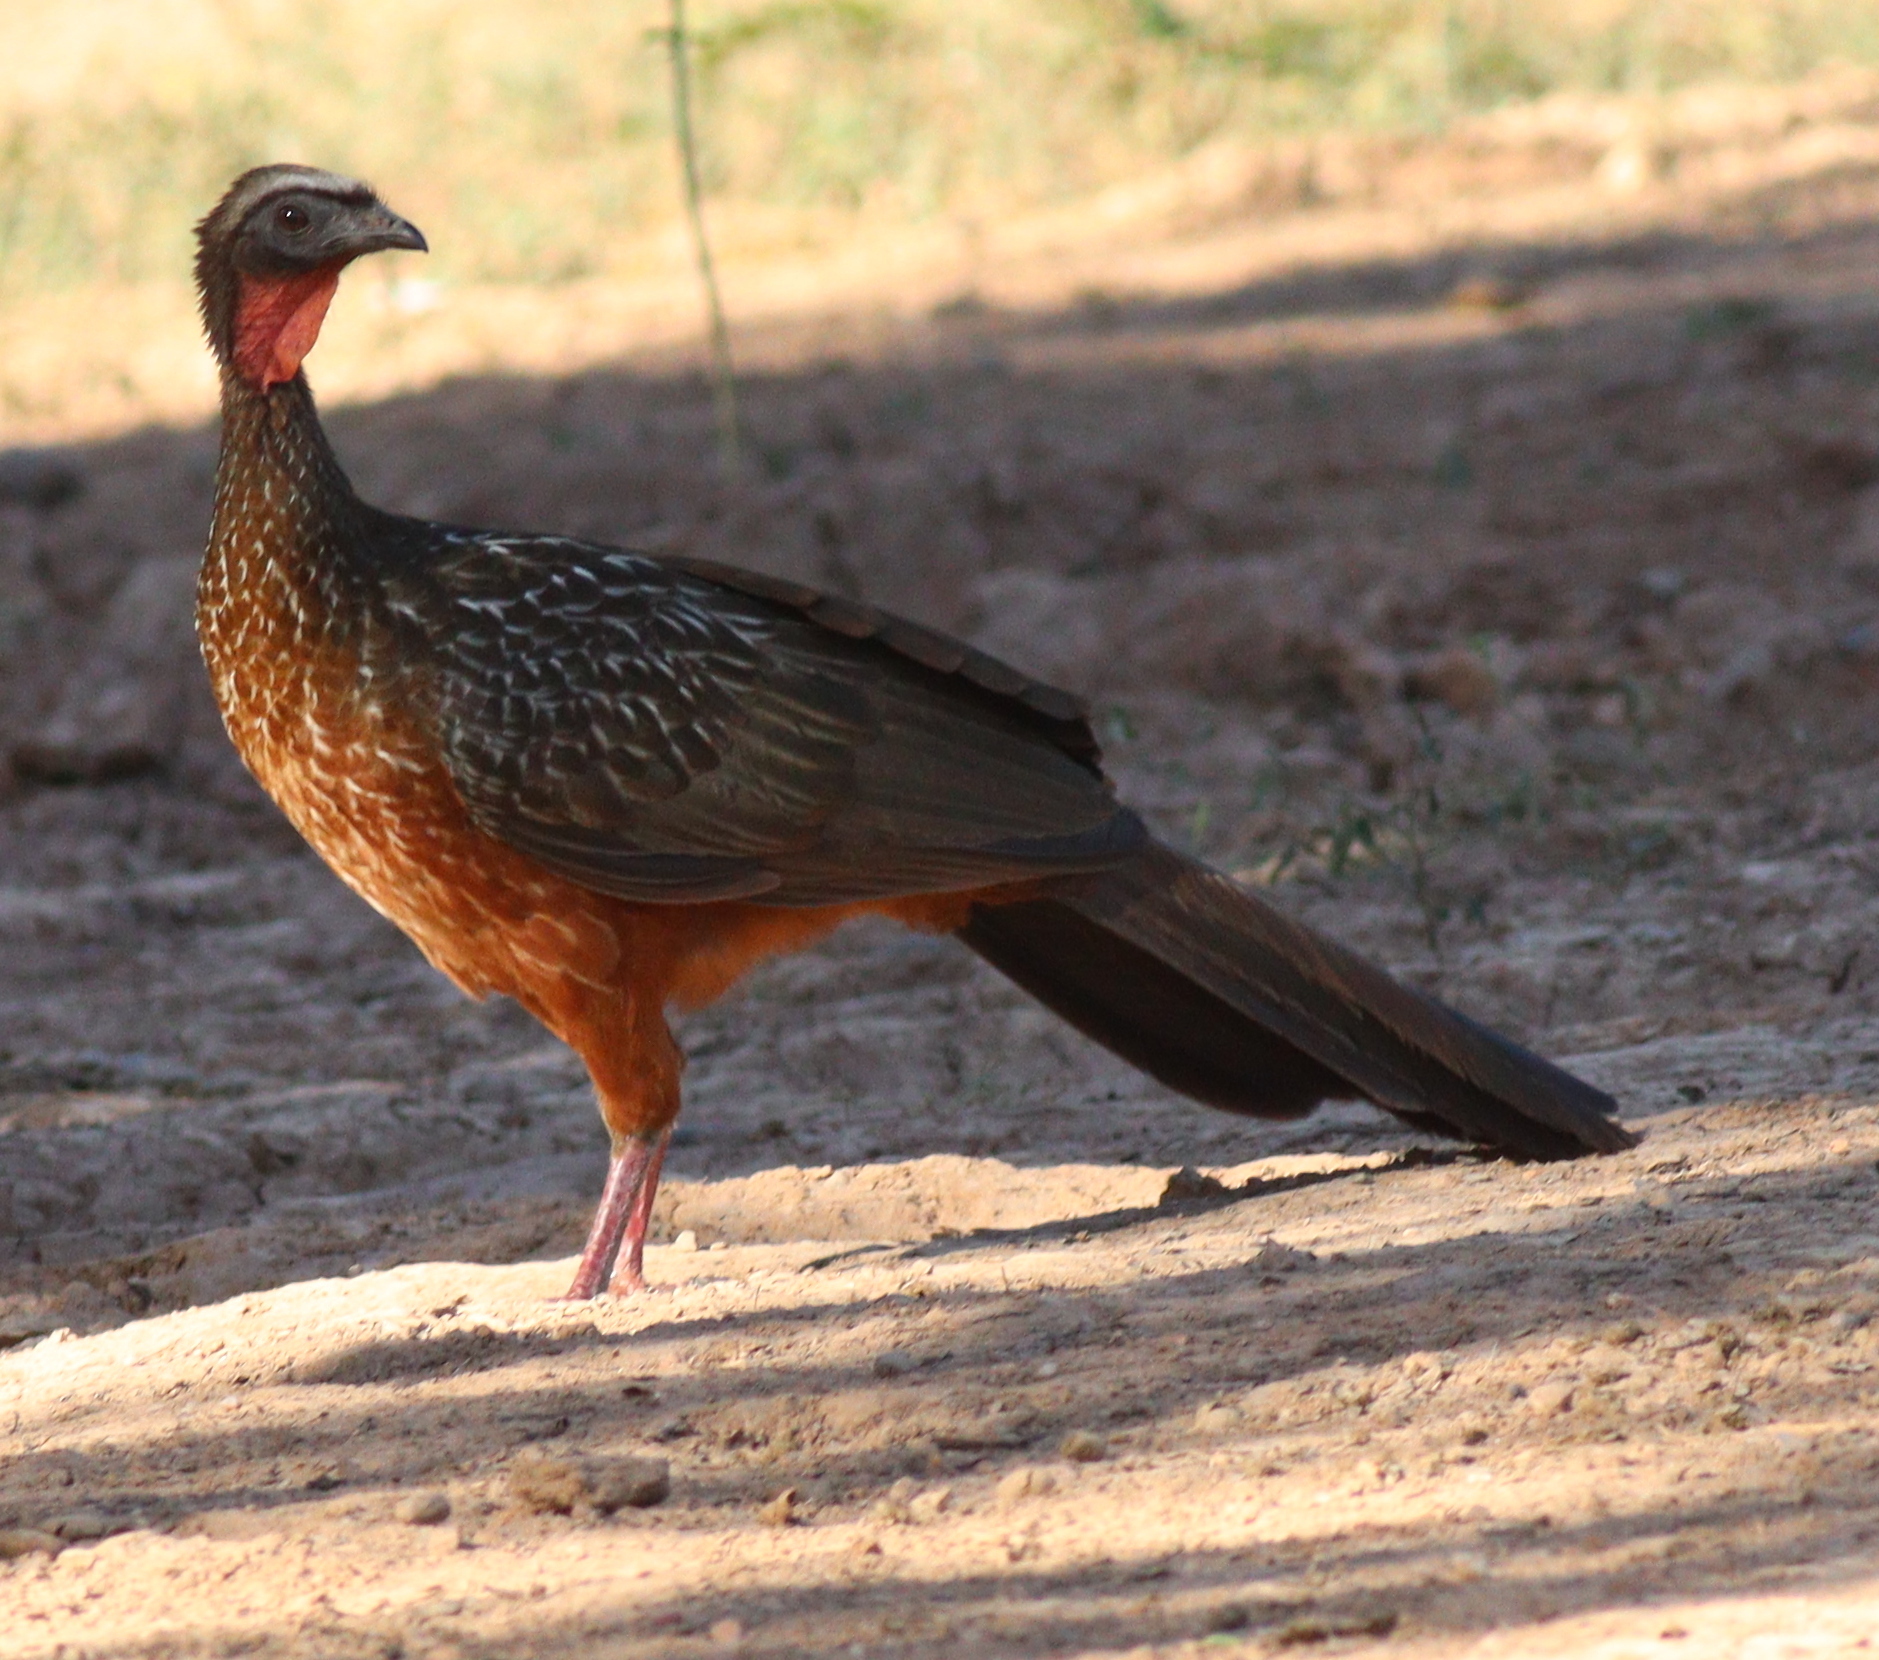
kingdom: Animalia
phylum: Chordata
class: Aves
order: Galliformes
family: Cracidae
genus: Penelope
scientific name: Penelope ochrogaster
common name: Chestnut-bellied guan
